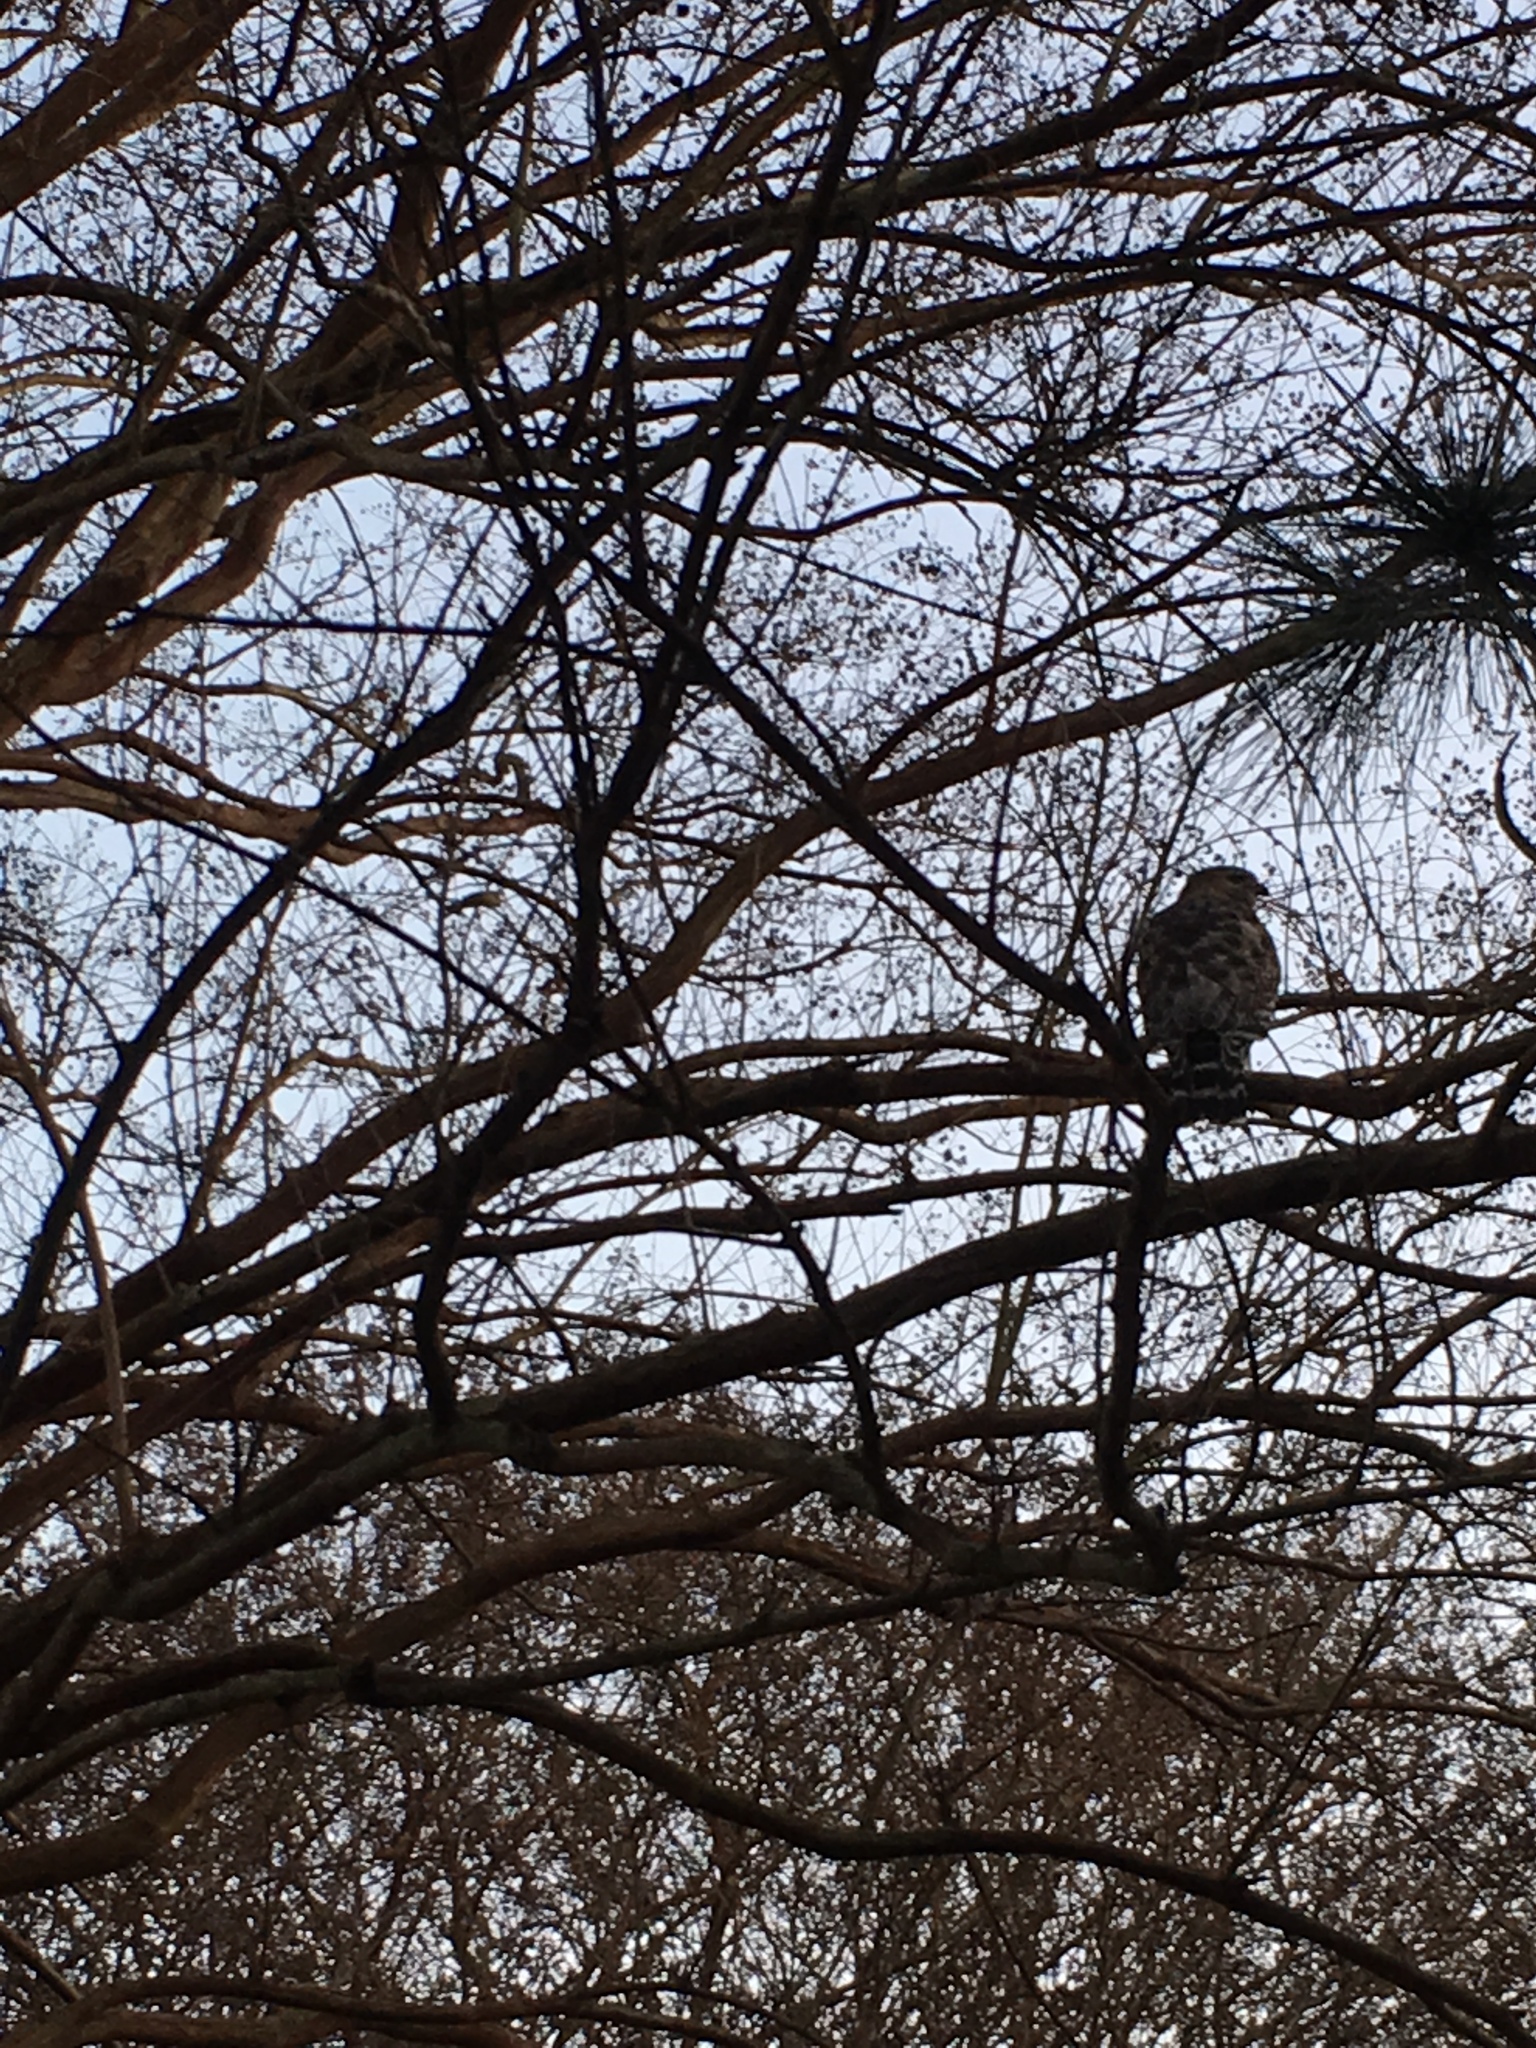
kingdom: Animalia
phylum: Chordata
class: Aves
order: Accipitriformes
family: Accipitridae
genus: Buteo
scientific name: Buteo lineatus
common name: Red-shouldered hawk
